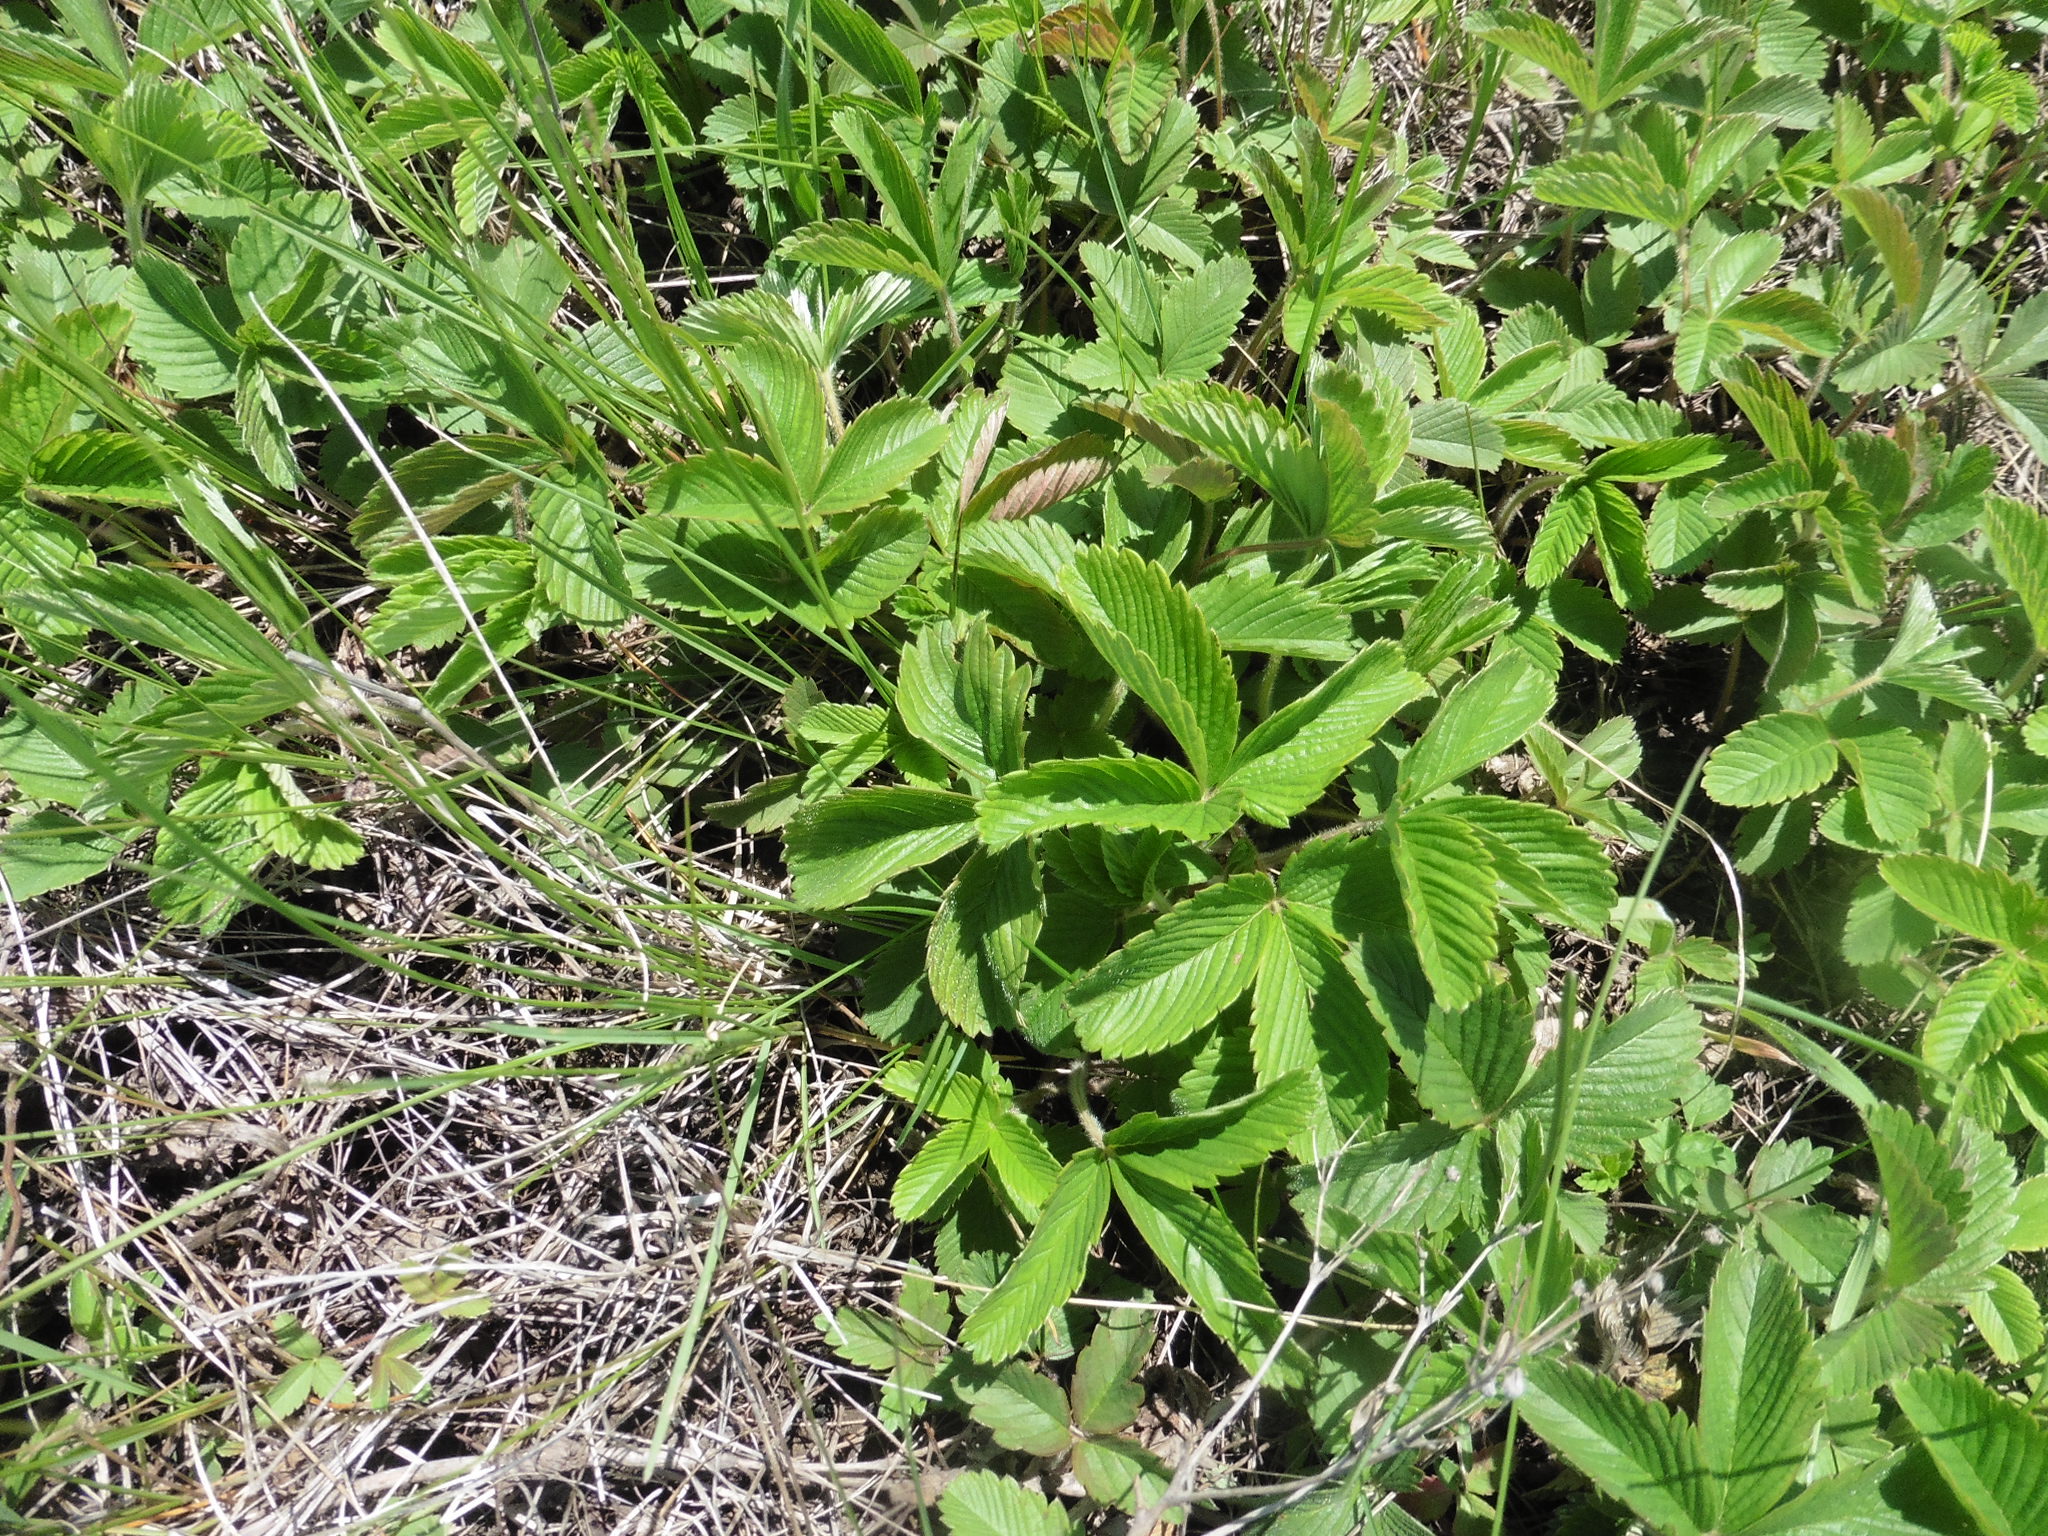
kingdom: Plantae
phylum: Tracheophyta
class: Magnoliopsida
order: Rosales
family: Rosaceae
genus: Fragaria
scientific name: Fragaria viridis
